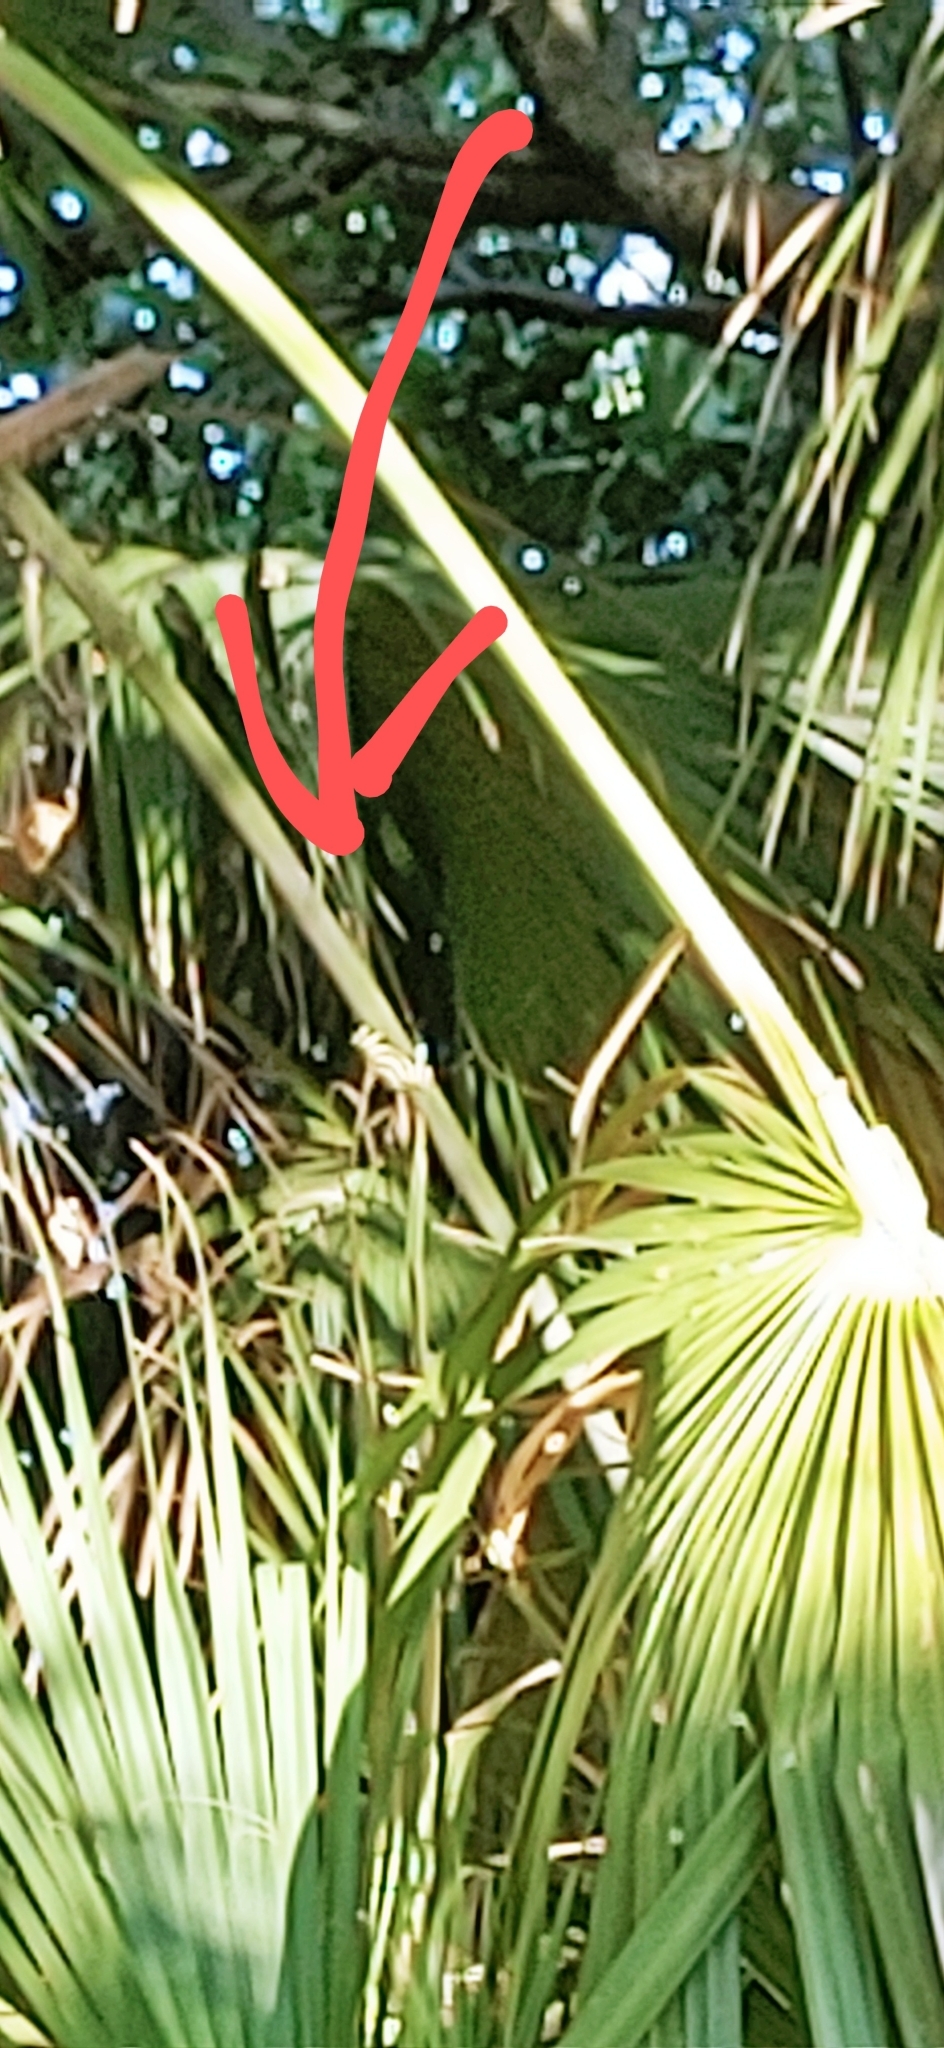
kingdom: Animalia
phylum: Arthropoda
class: Insecta
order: Lepidoptera
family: Nymphalidae
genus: Heliconius
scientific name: Heliconius charithonia
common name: Zebra long wing
